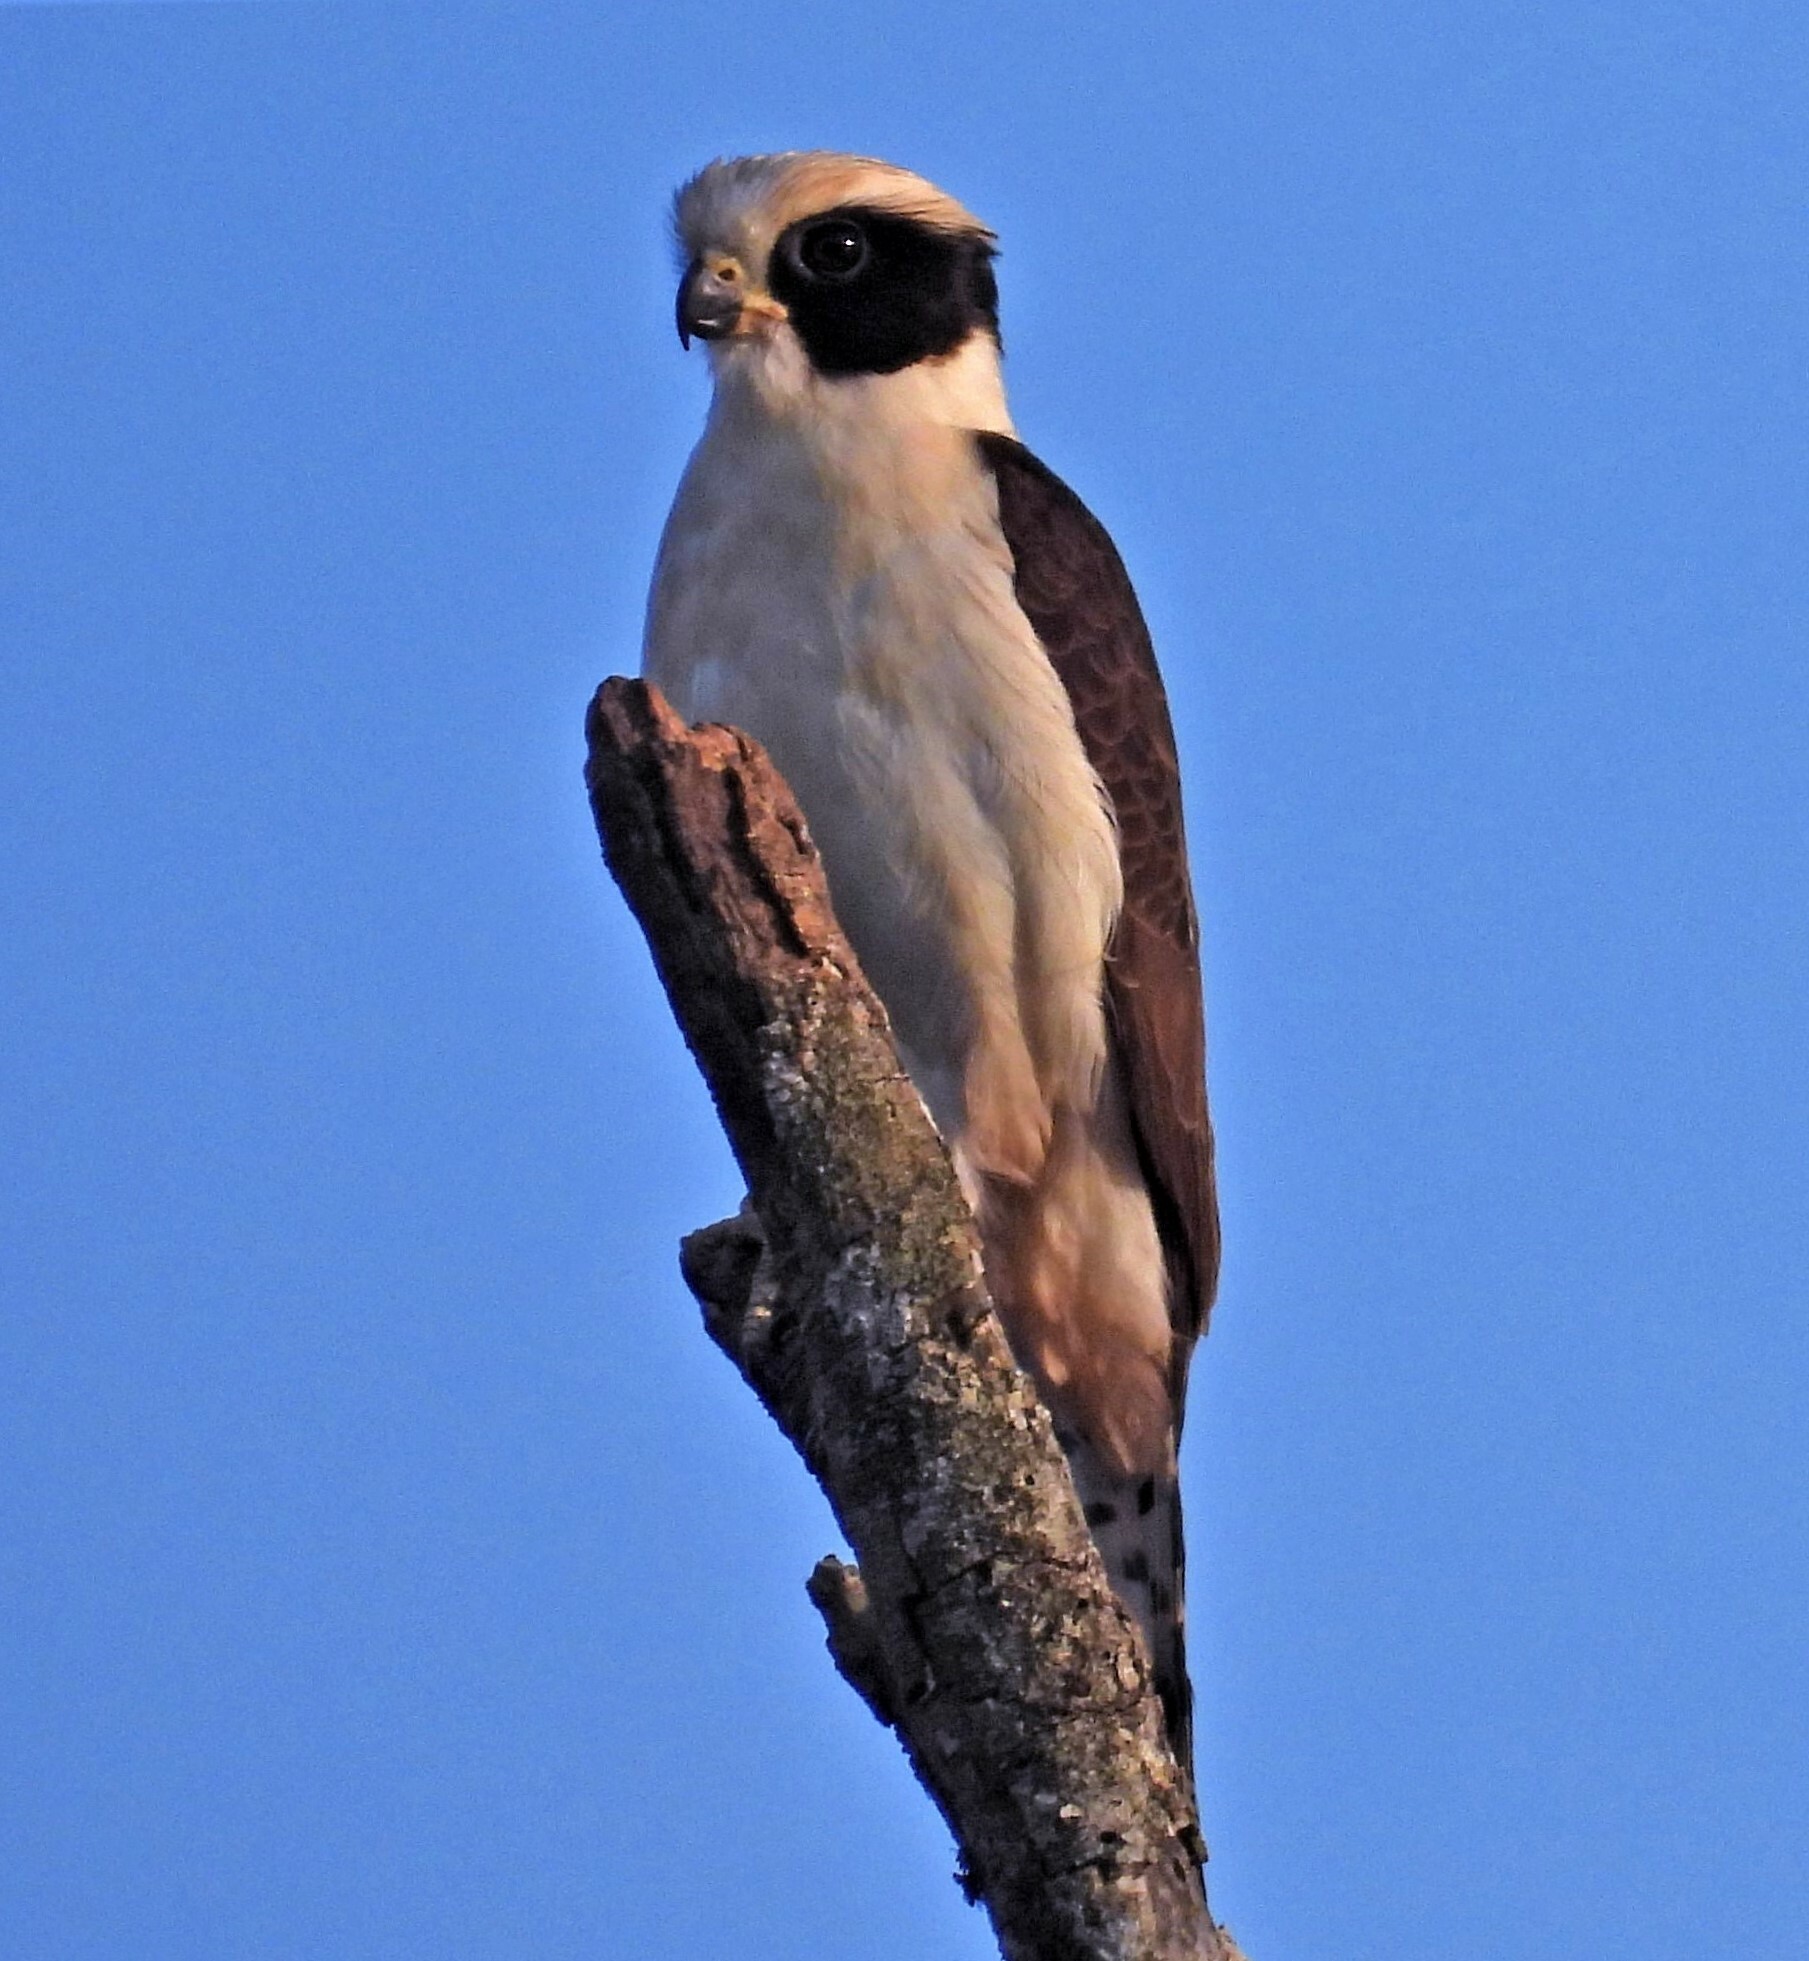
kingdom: Animalia
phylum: Chordata
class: Aves
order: Falconiformes
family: Falconidae
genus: Herpetotheres
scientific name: Herpetotheres cachinnans
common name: Laughing falcon
